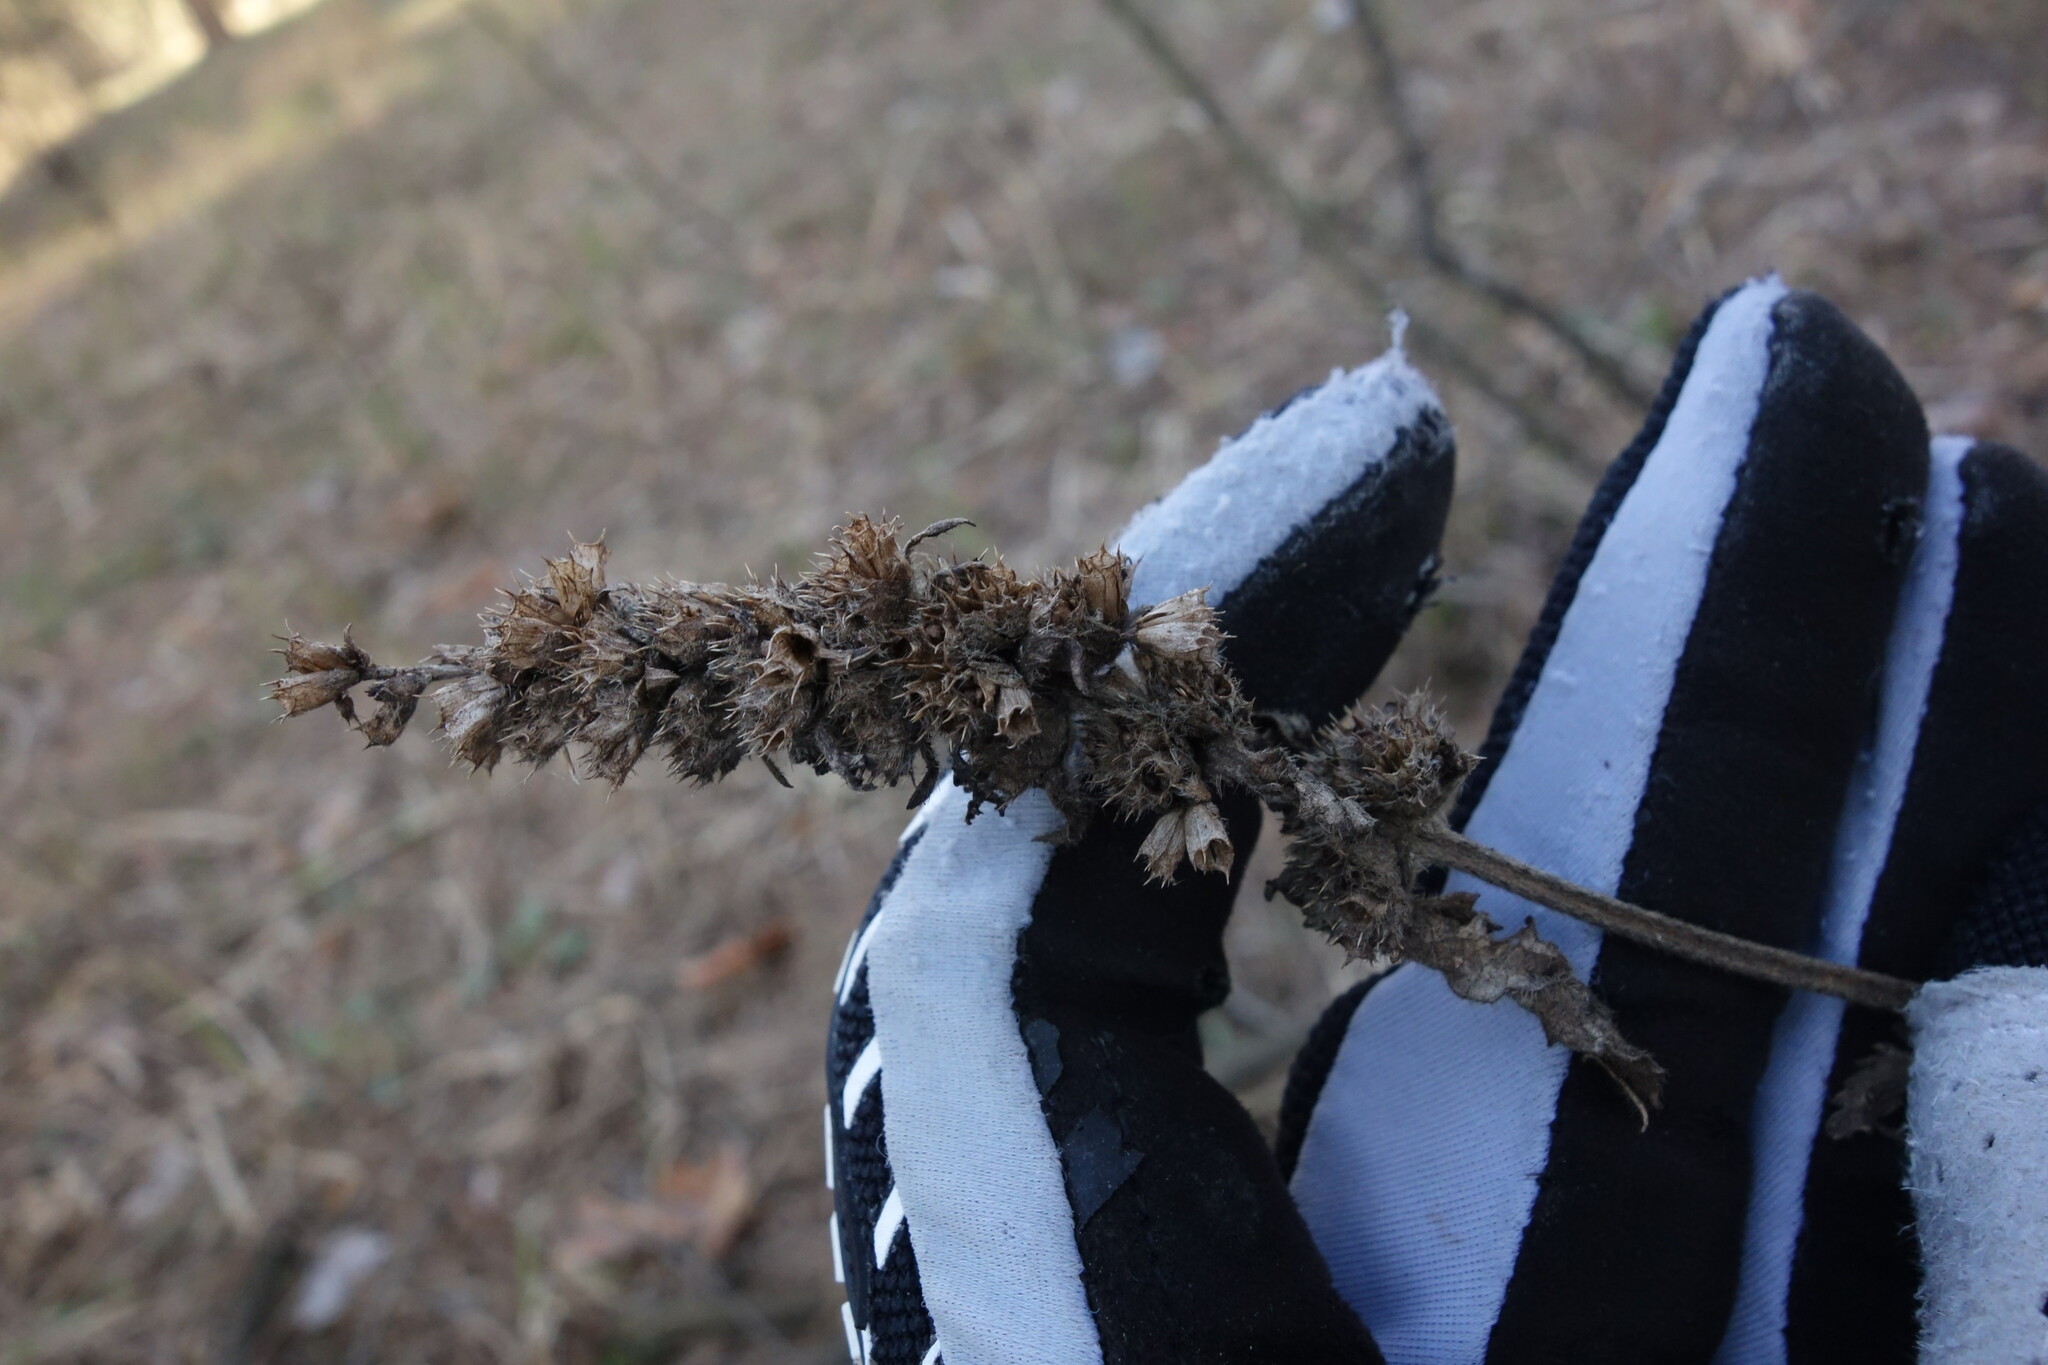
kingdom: Plantae
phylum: Tracheophyta
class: Magnoliopsida
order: Lamiales
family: Lamiaceae
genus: Betonica
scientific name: Betonica officinalis
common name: Bishop's-wort
